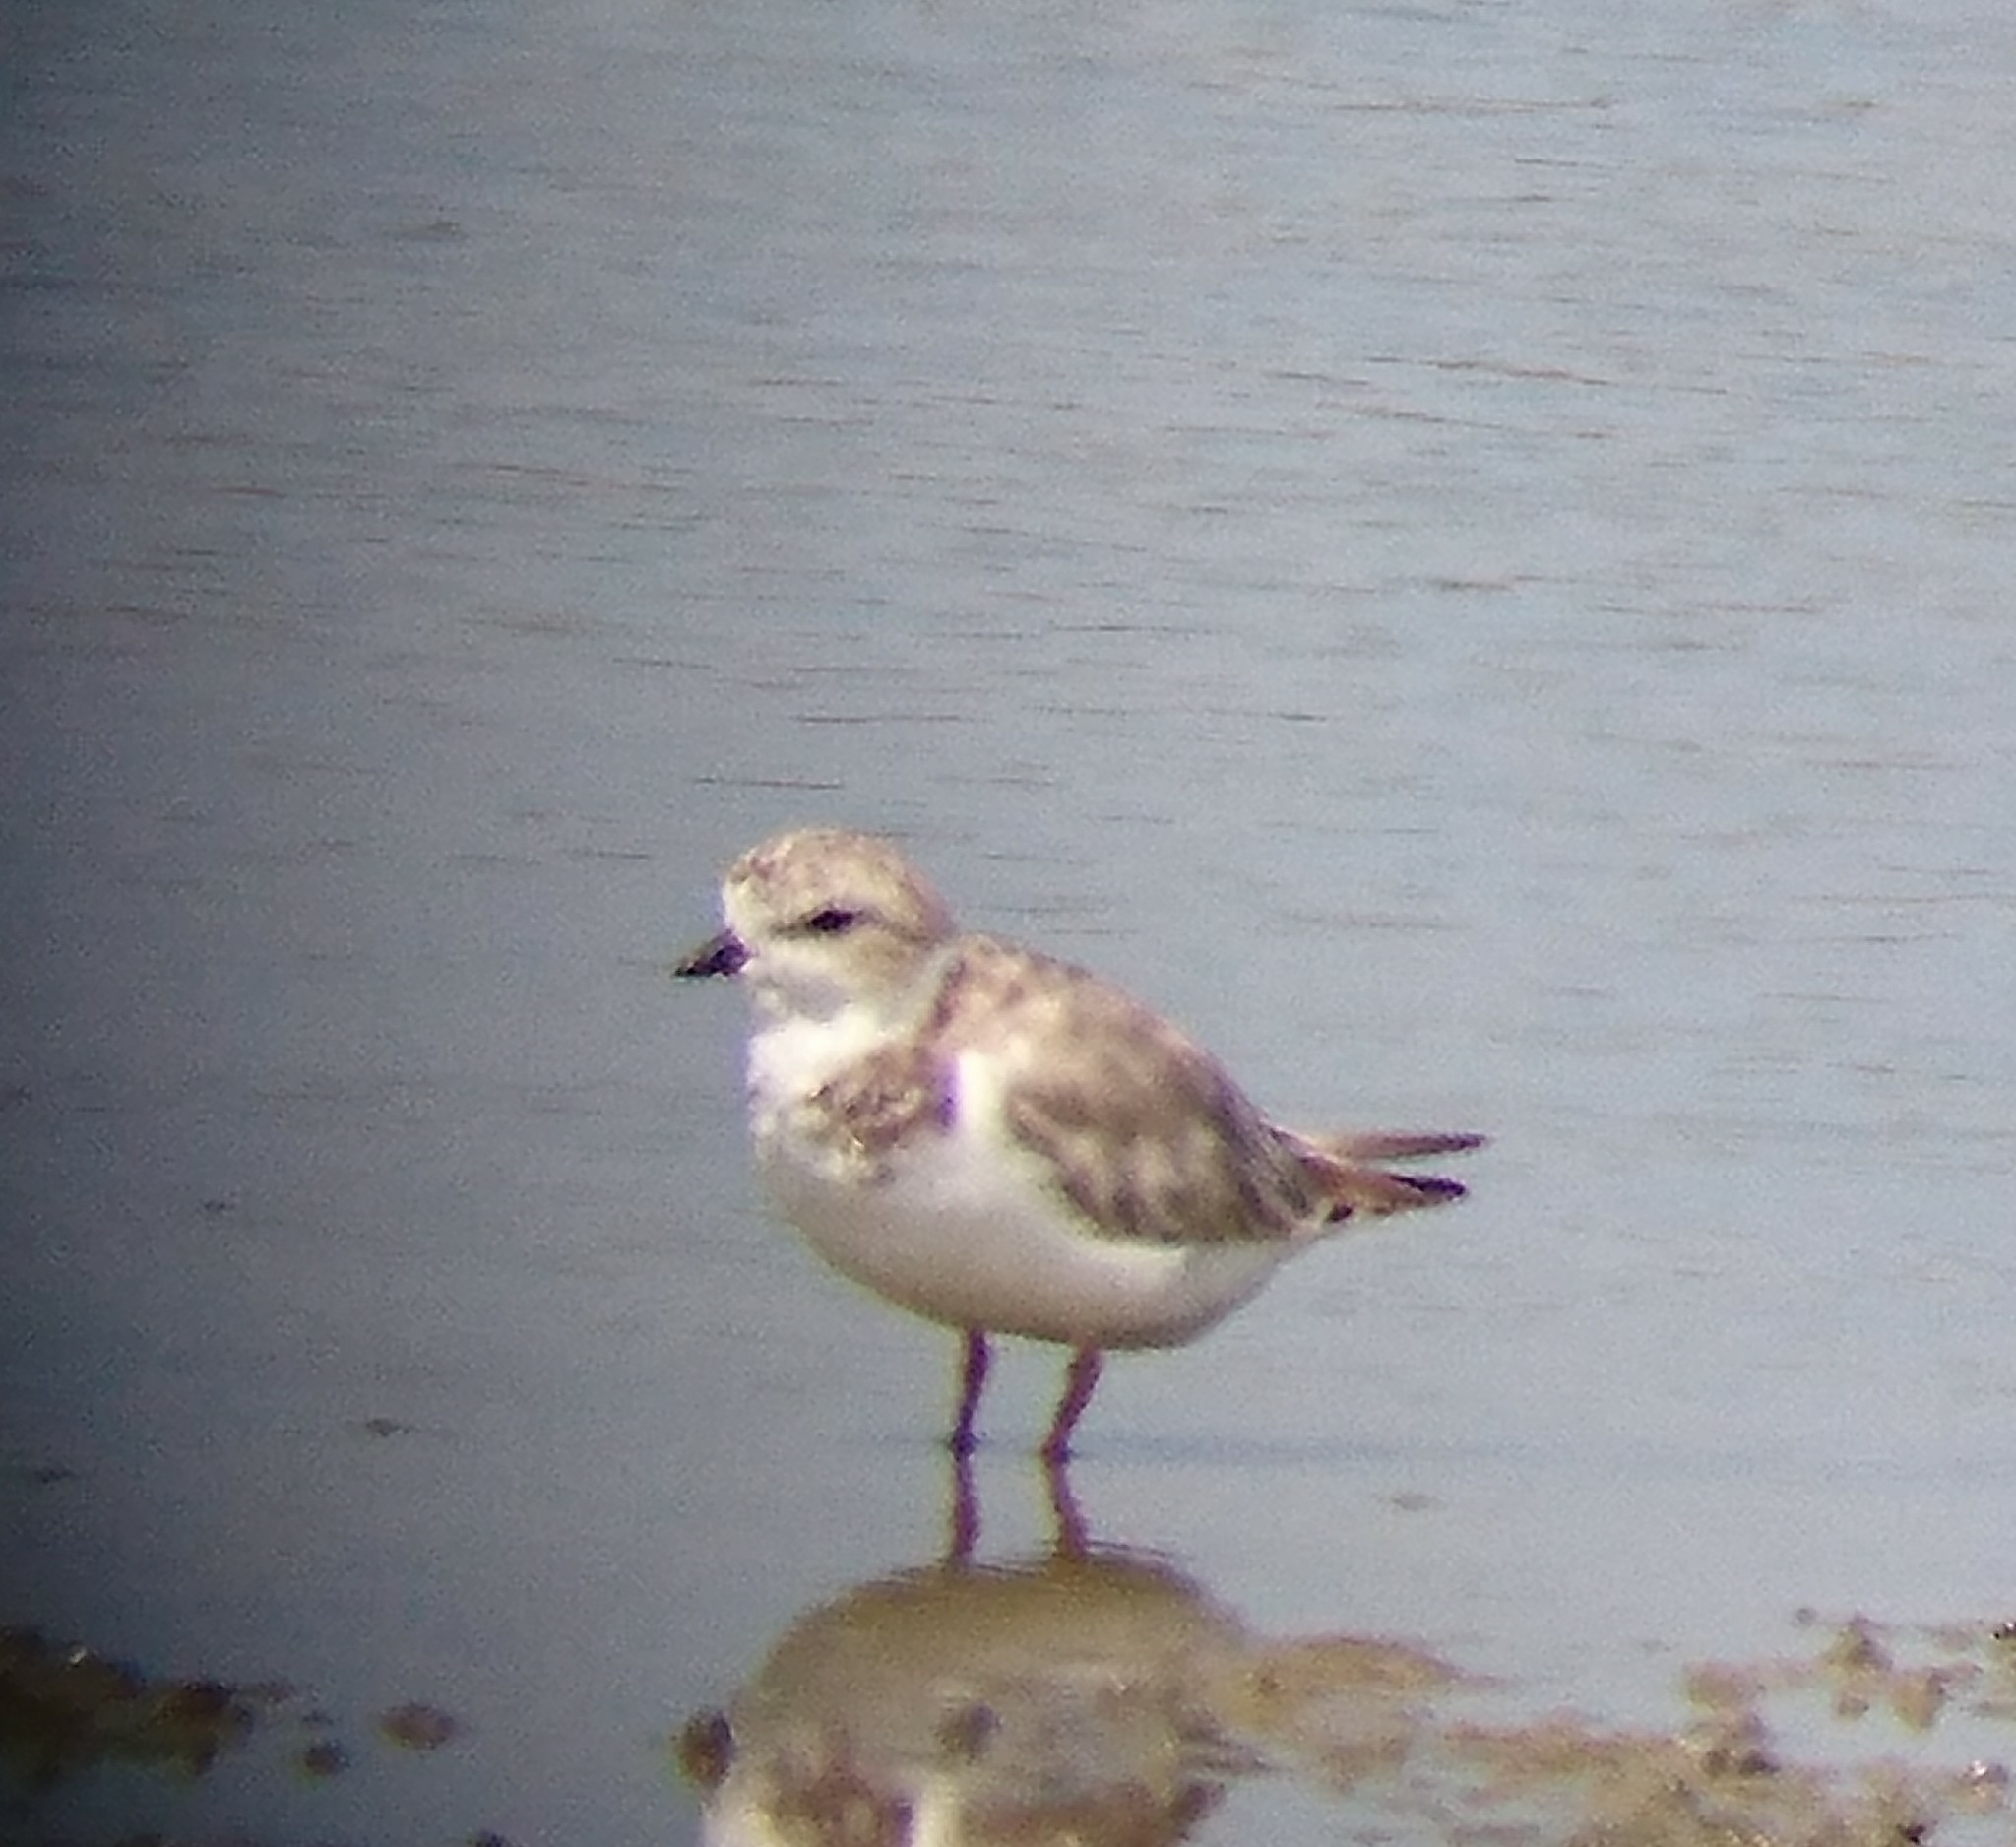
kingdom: Animalia
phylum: Chordata
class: Aves
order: Charadriiformes
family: Charadriidae
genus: Charadrius
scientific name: Charadrius melodus
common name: Piping plover
